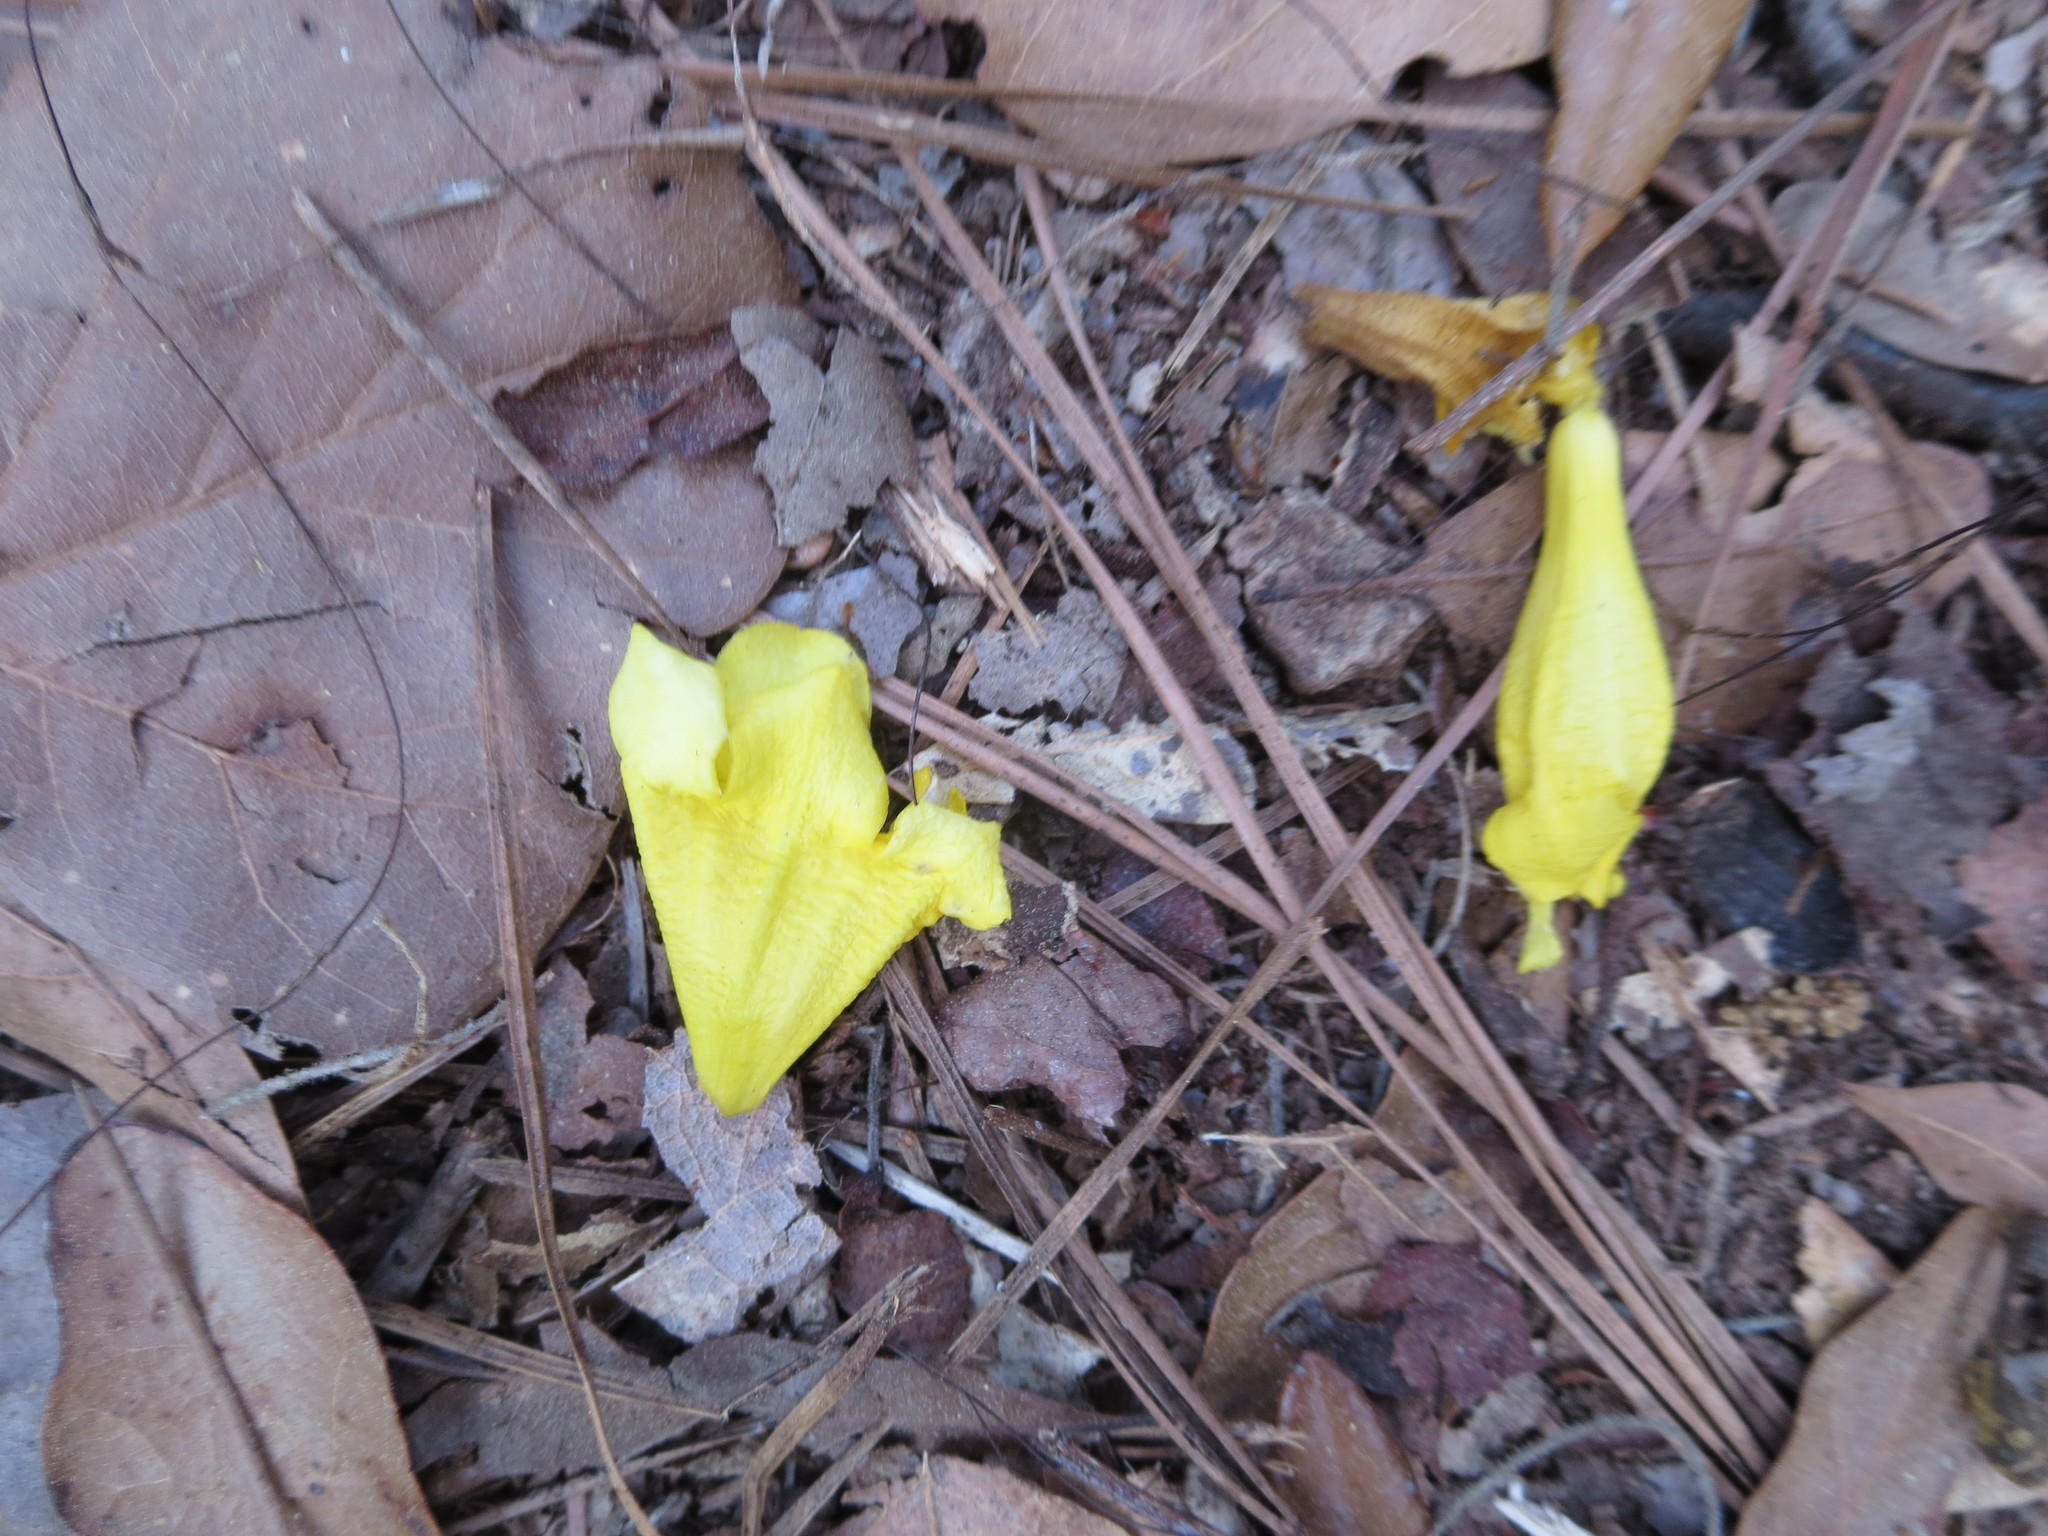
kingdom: Plantae
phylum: Tracheophyta
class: Magnoliopsida
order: Gentianales
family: Gelsemiaceae
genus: Gelsemium
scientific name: Gelsemium sempervirens
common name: Carolina-jasmine
